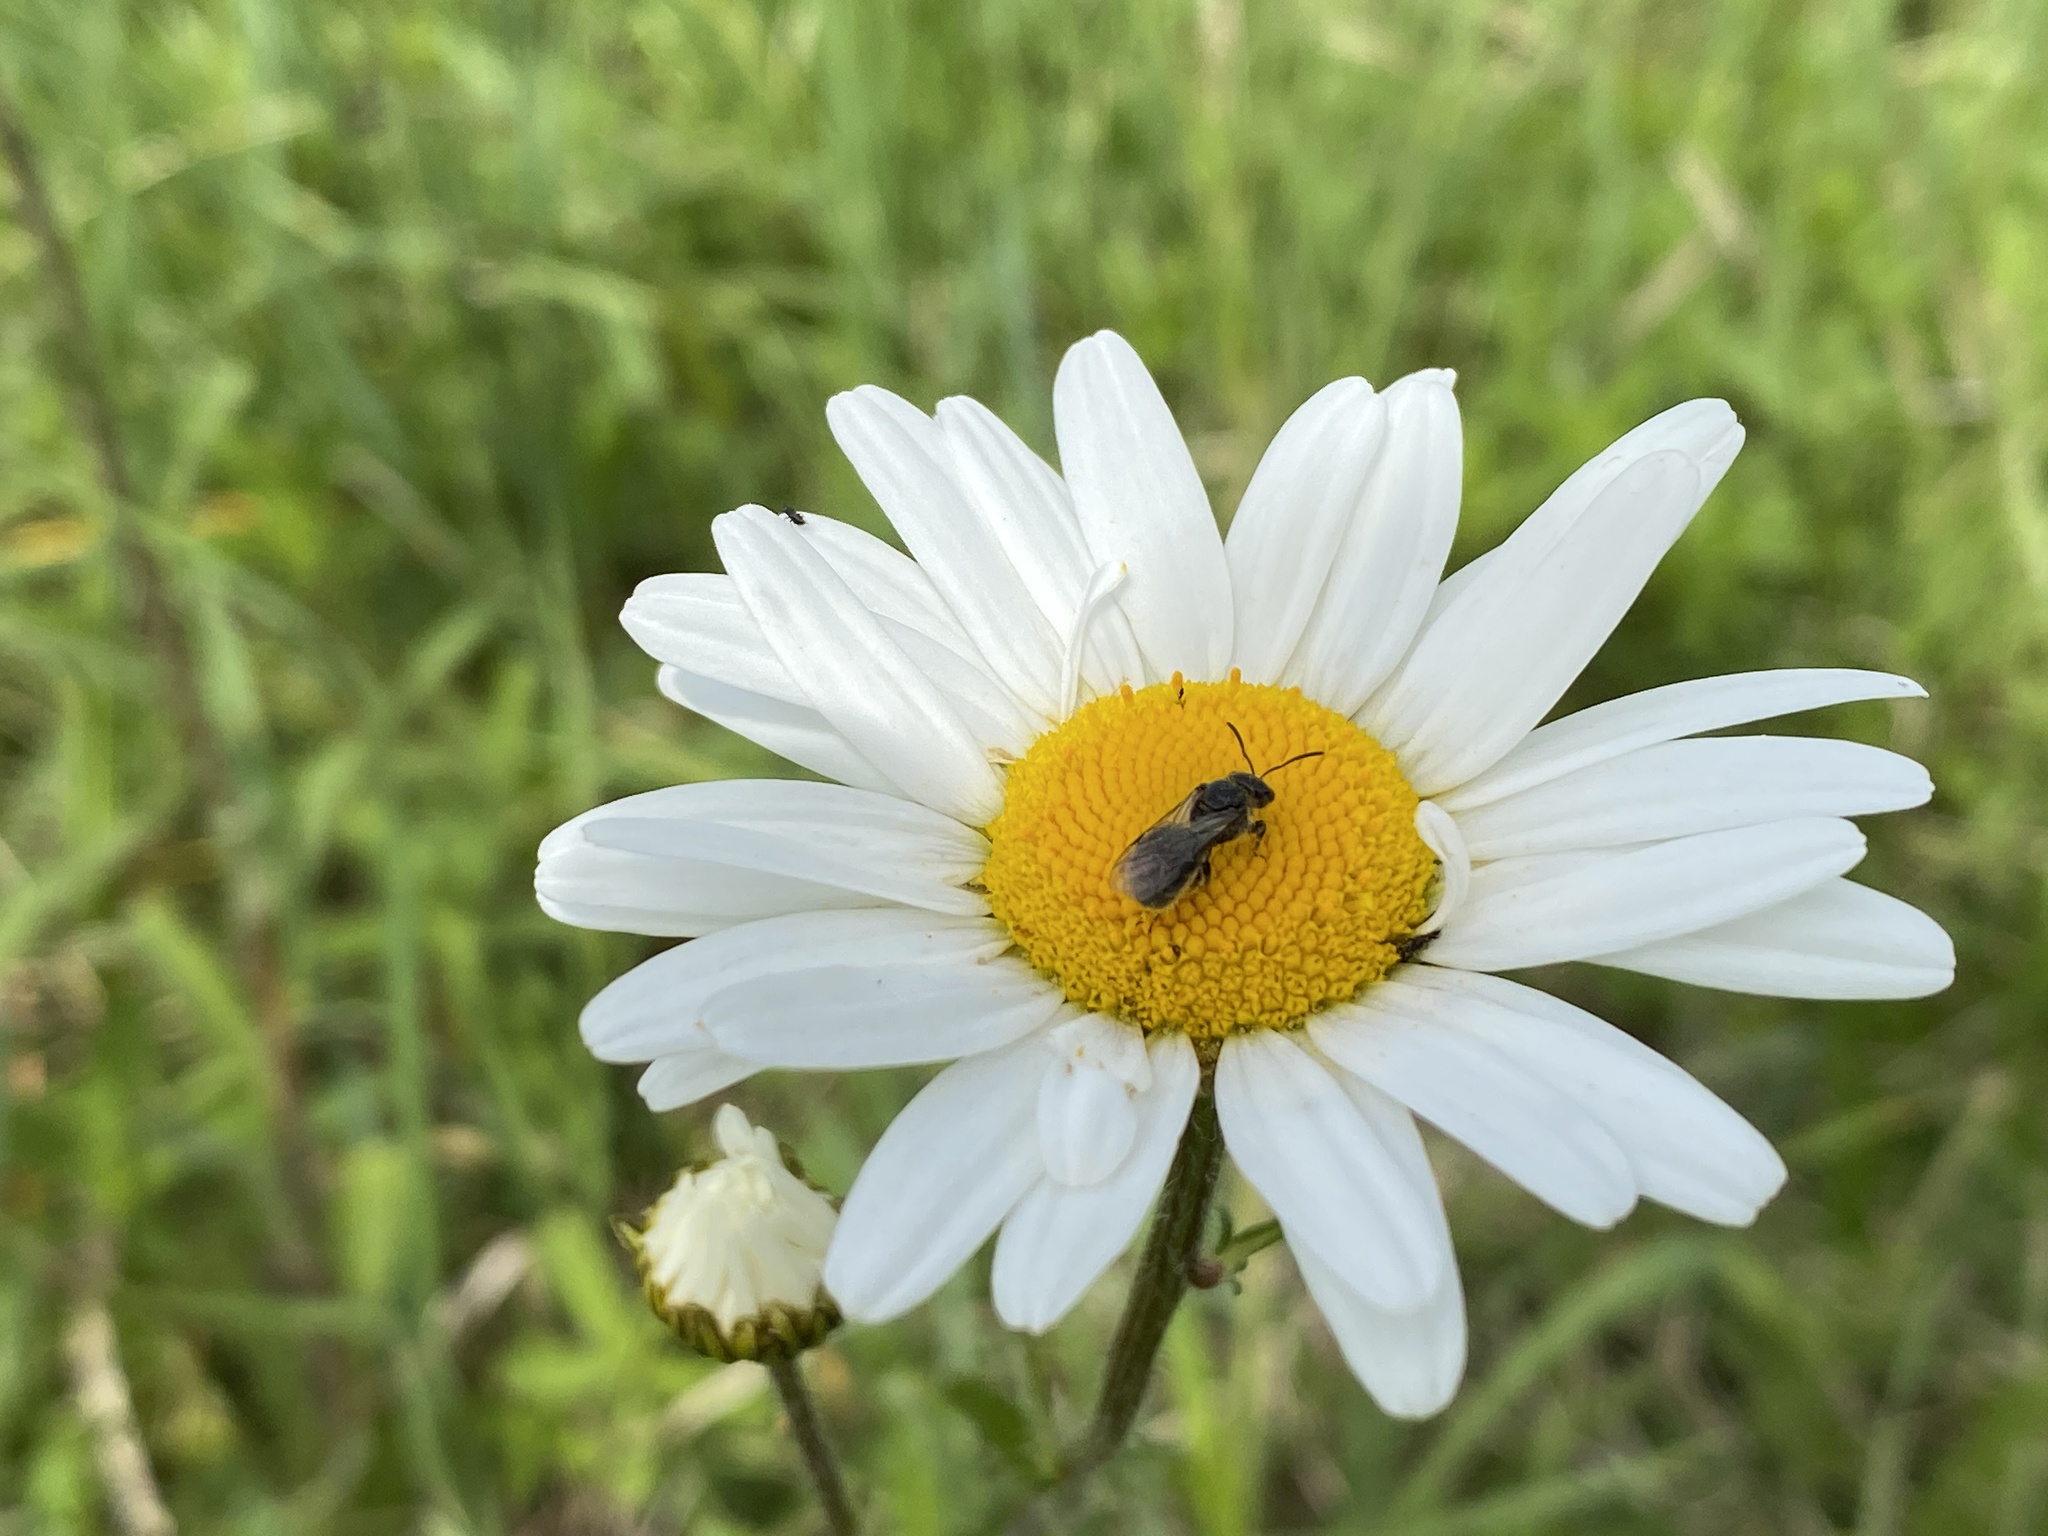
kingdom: Plantae
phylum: Tracheophyta
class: Magnoliopsida
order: Asterales
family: Asteraceae
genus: Leucanthemum
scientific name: Leucanthemum vulgare
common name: Oxeye daisy
